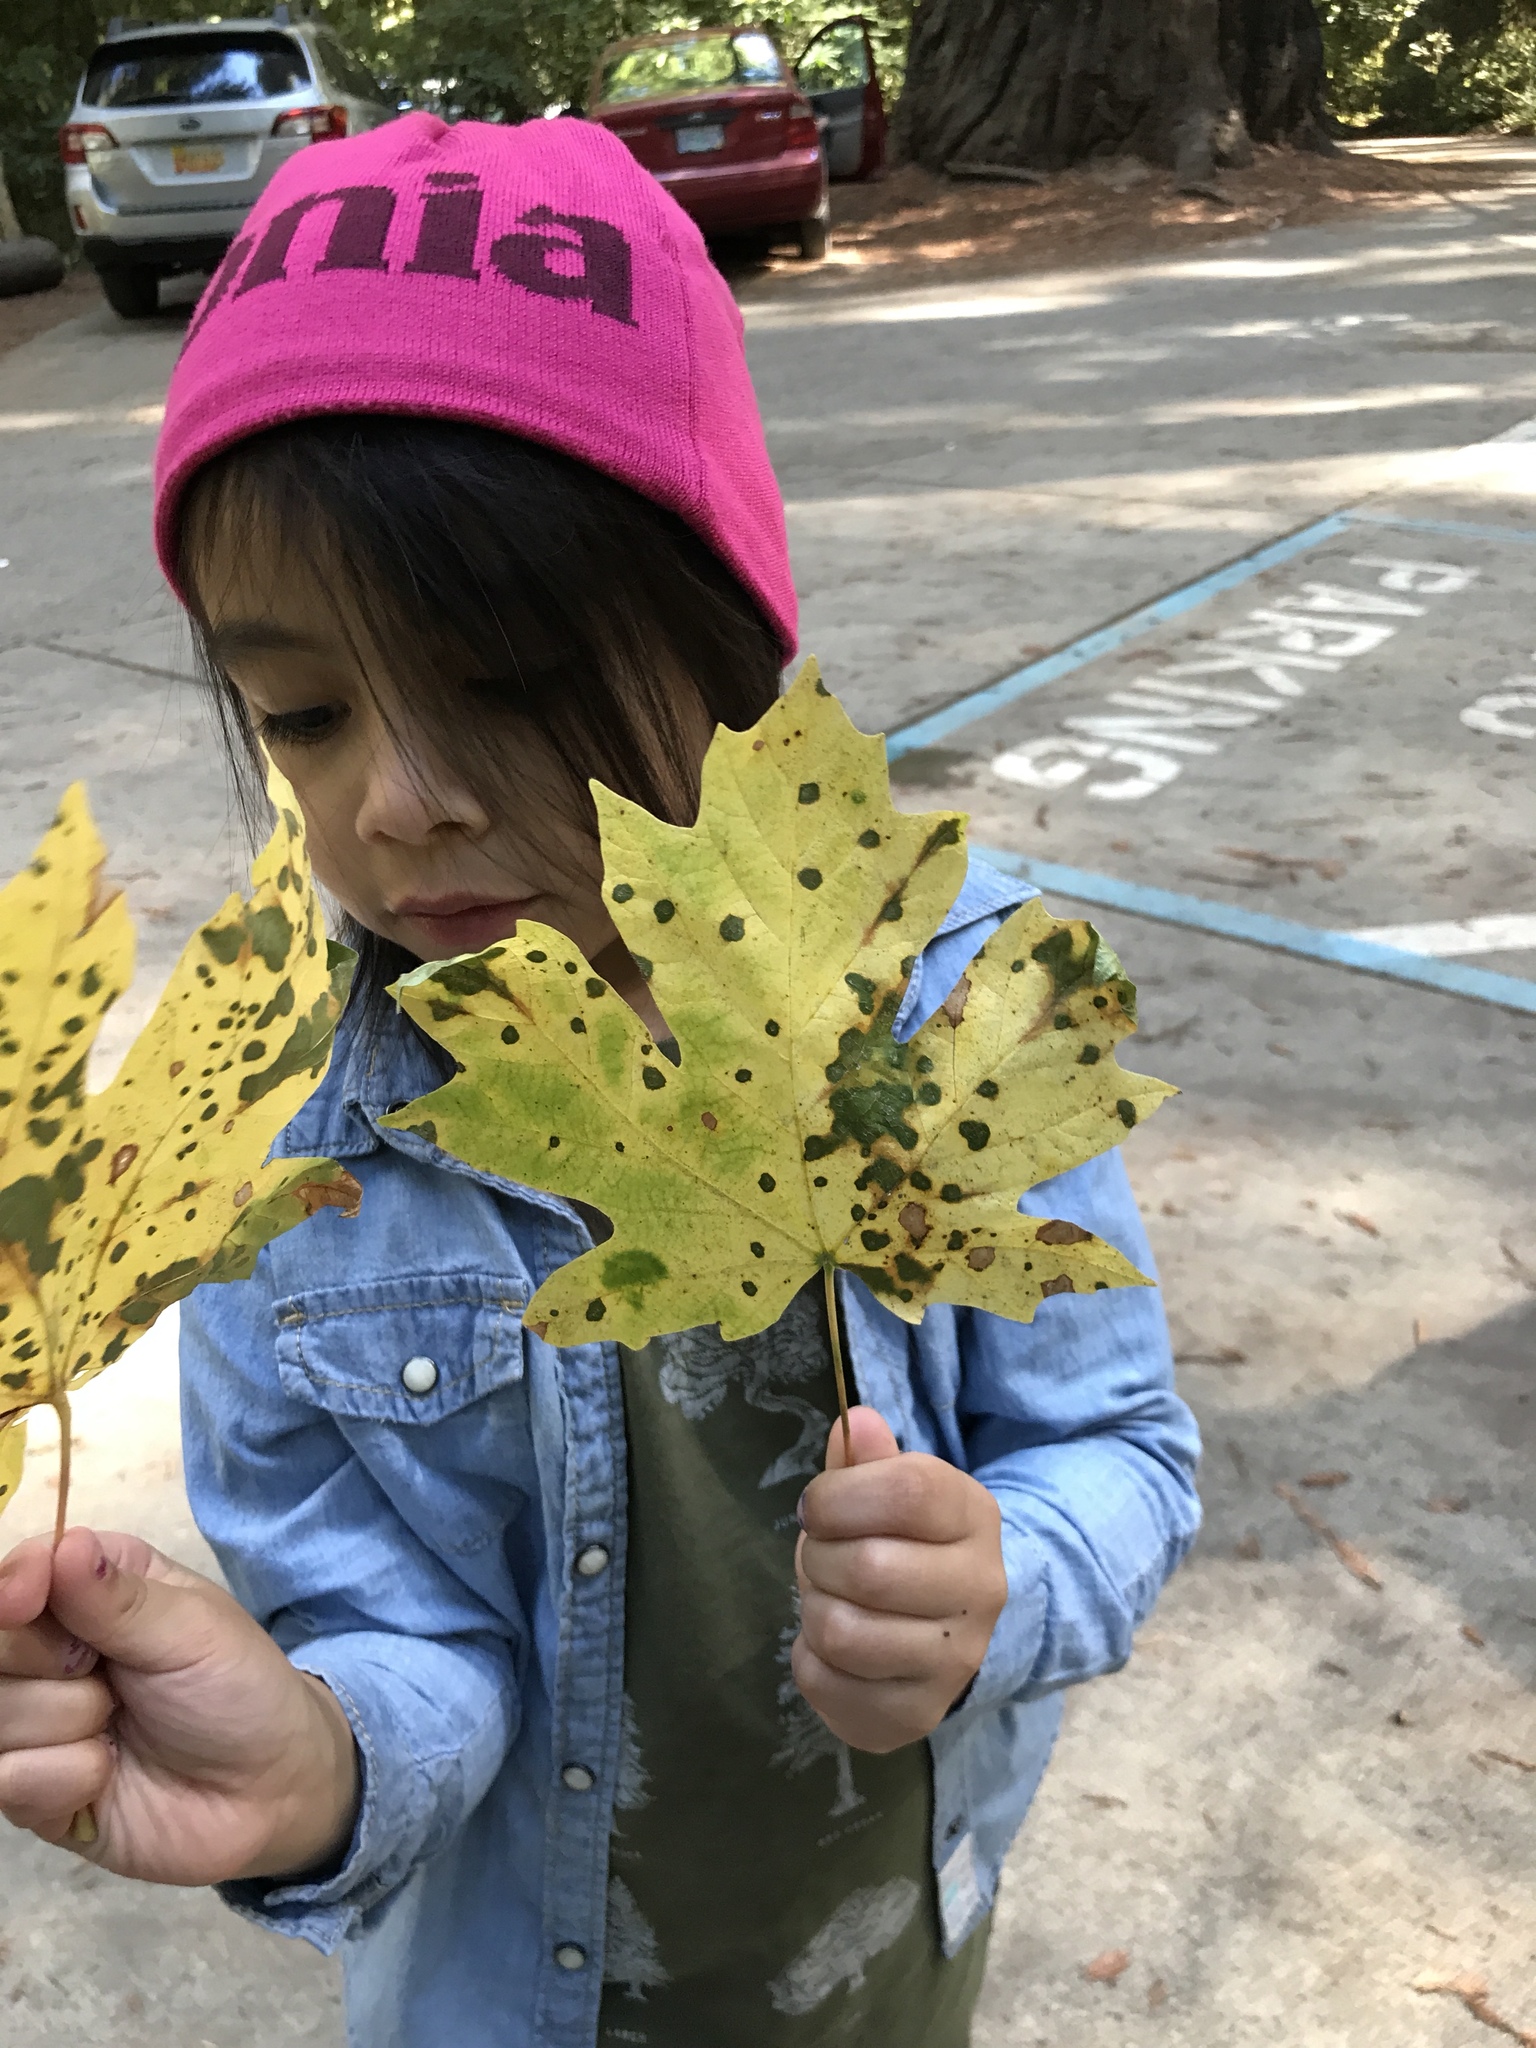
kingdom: Plantae
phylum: Tracheophyta
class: Magnoliopsida
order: Sapindales
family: Sapindaceae
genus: Acer
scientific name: Acer macrophyllum
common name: Oregon maple
